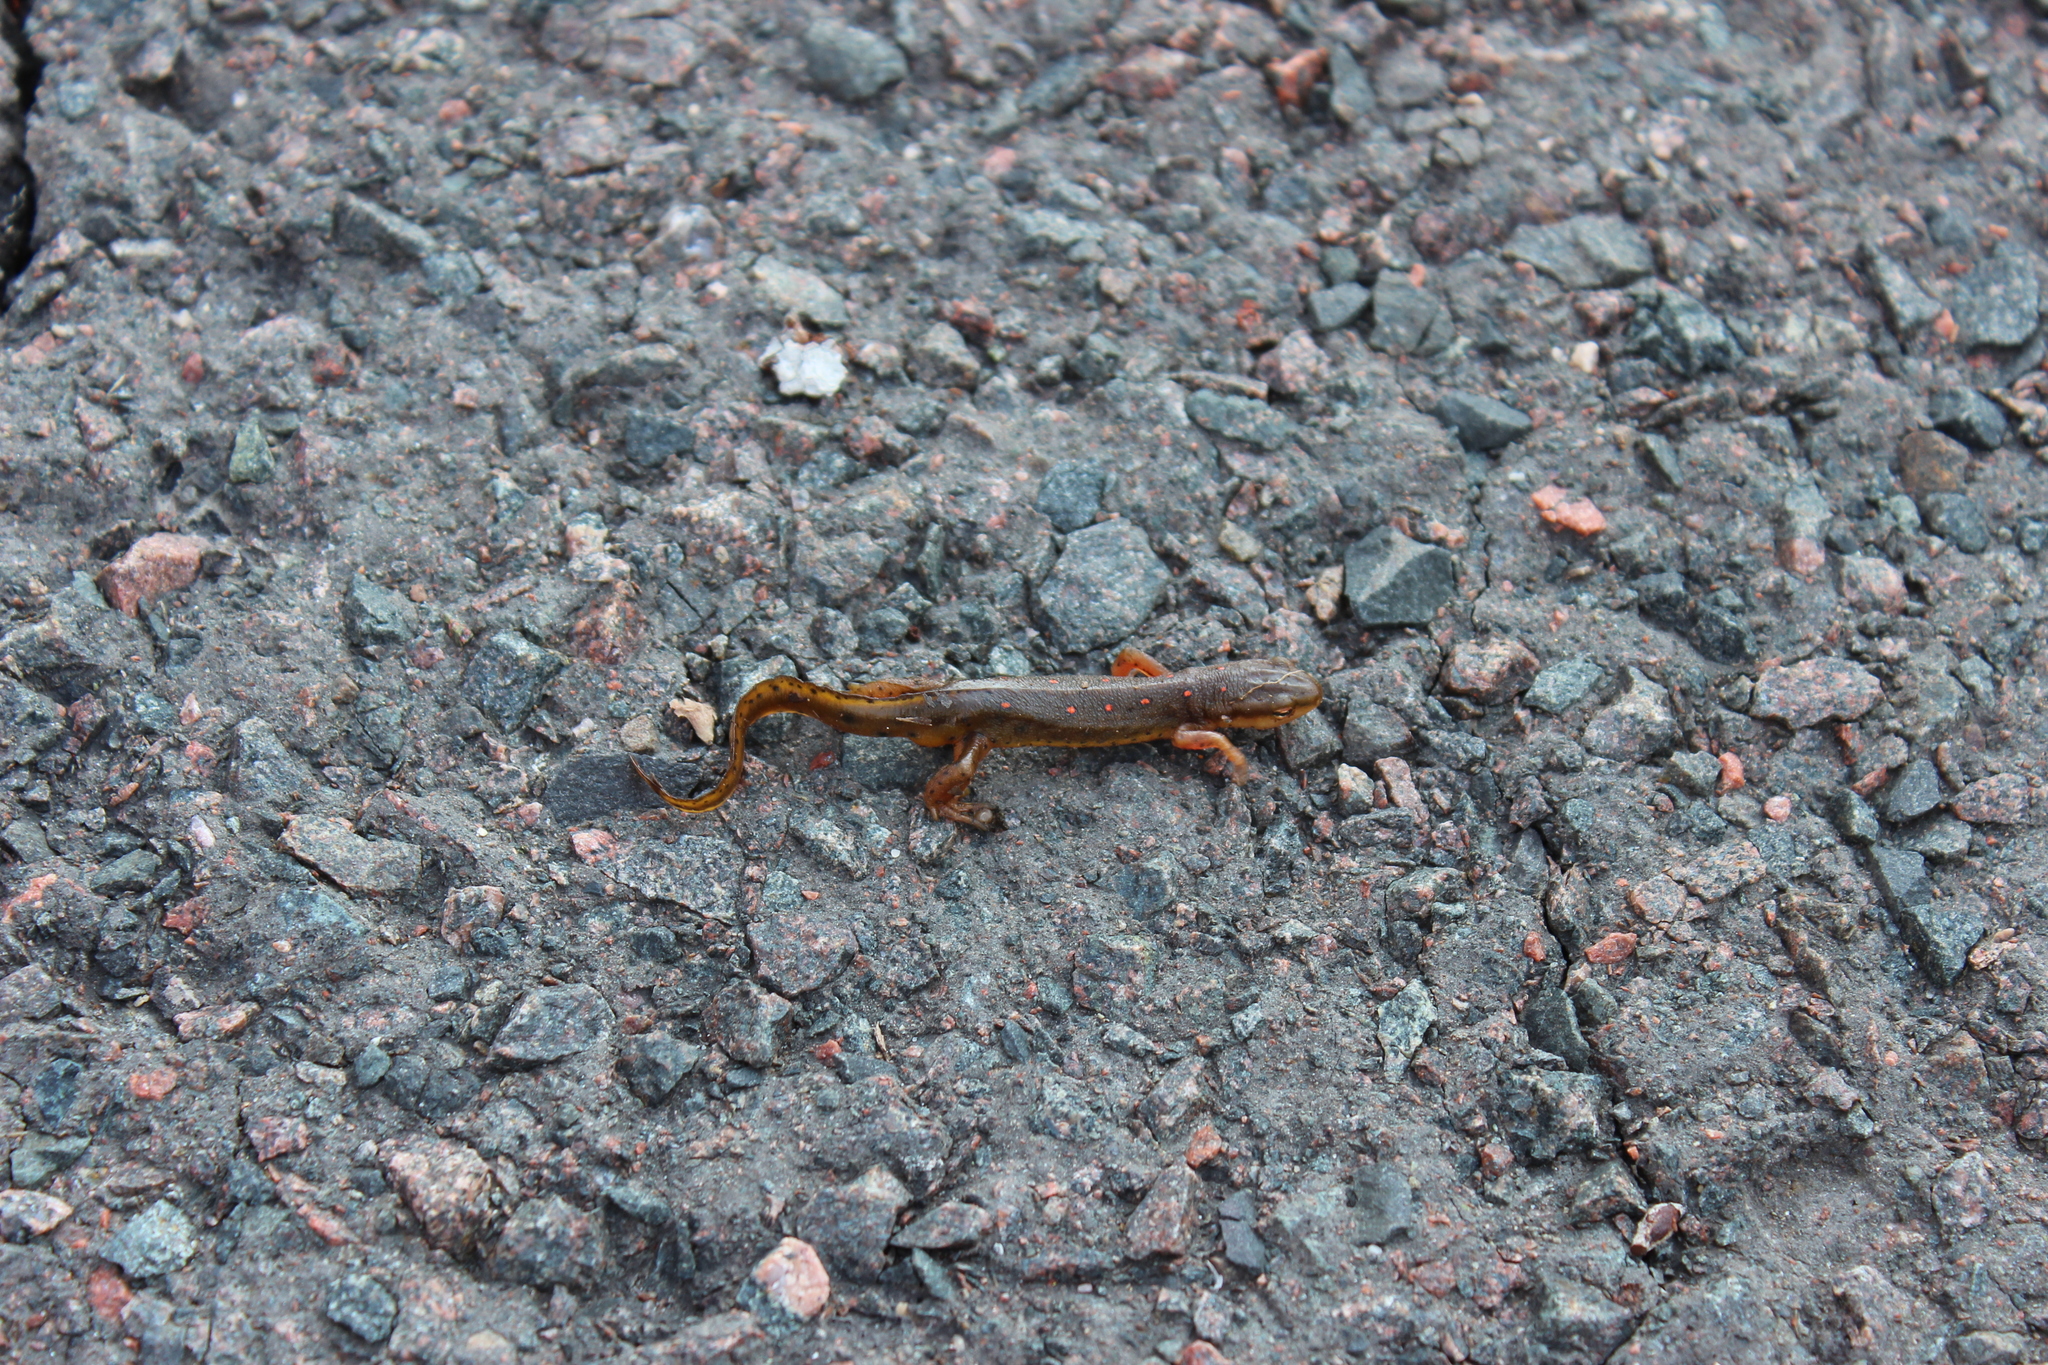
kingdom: Animalia
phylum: Chordata
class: Amphibia
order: Caudata
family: Salamandridae
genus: Notophthalmus
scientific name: Notophthalmus viridescens
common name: Eastern newt
